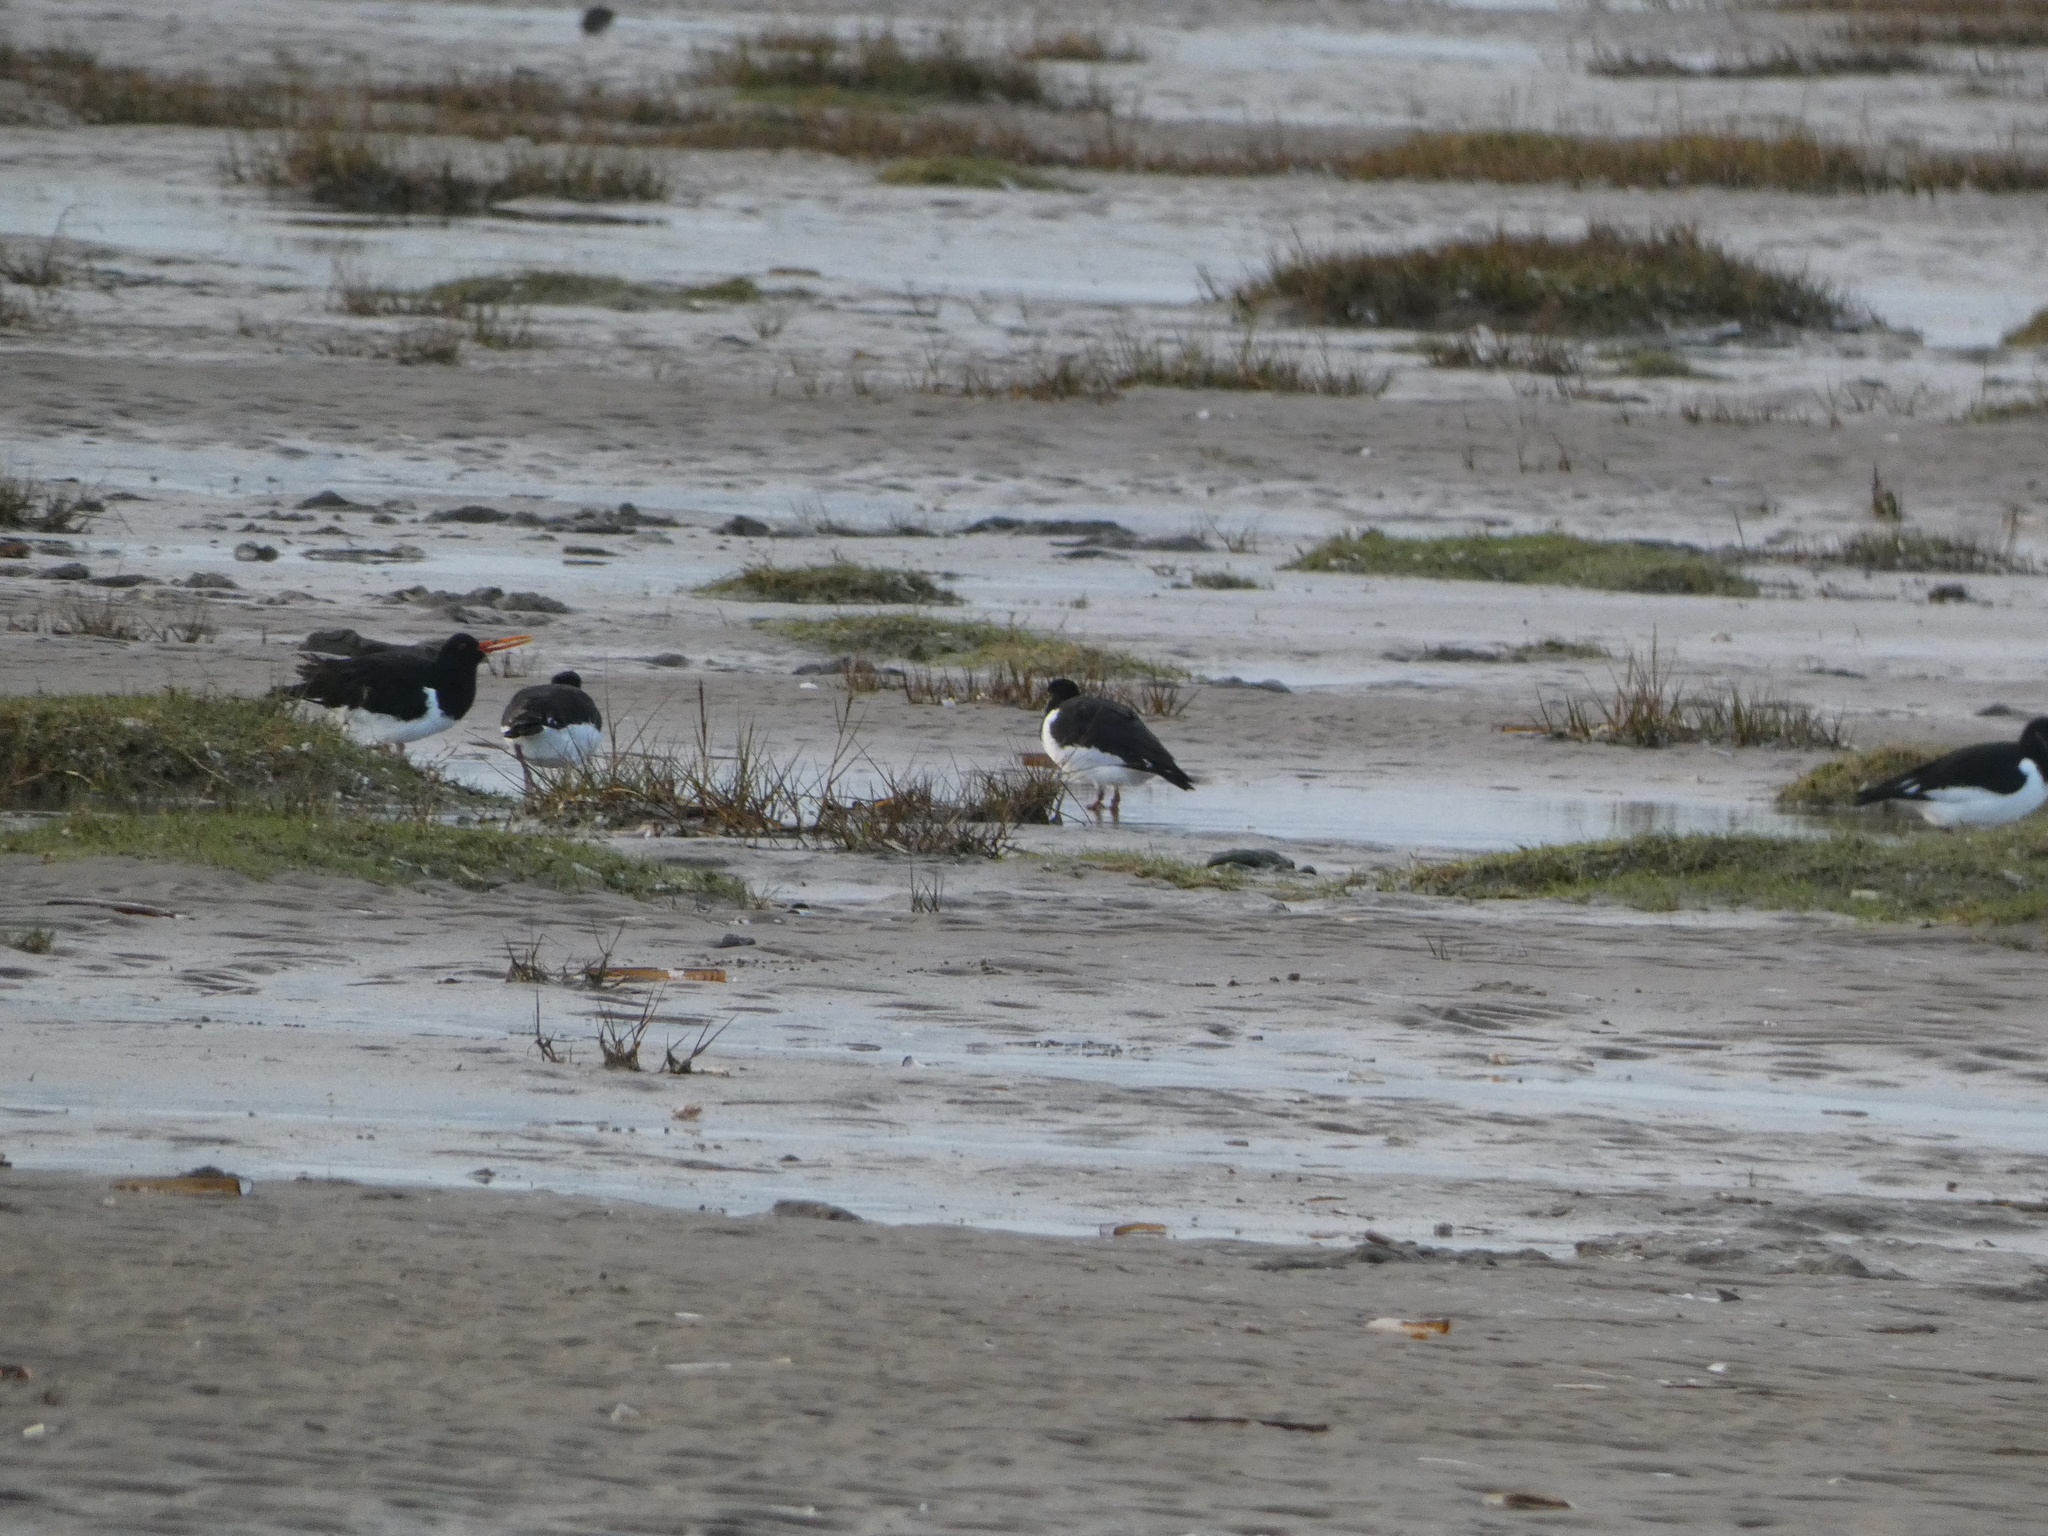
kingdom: Animalia
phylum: Chordata
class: Aves
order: Charadriiformes
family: Haematopodidae
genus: Haematopus
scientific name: Haematopus ostralegus
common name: Eurasian oystercatcher
